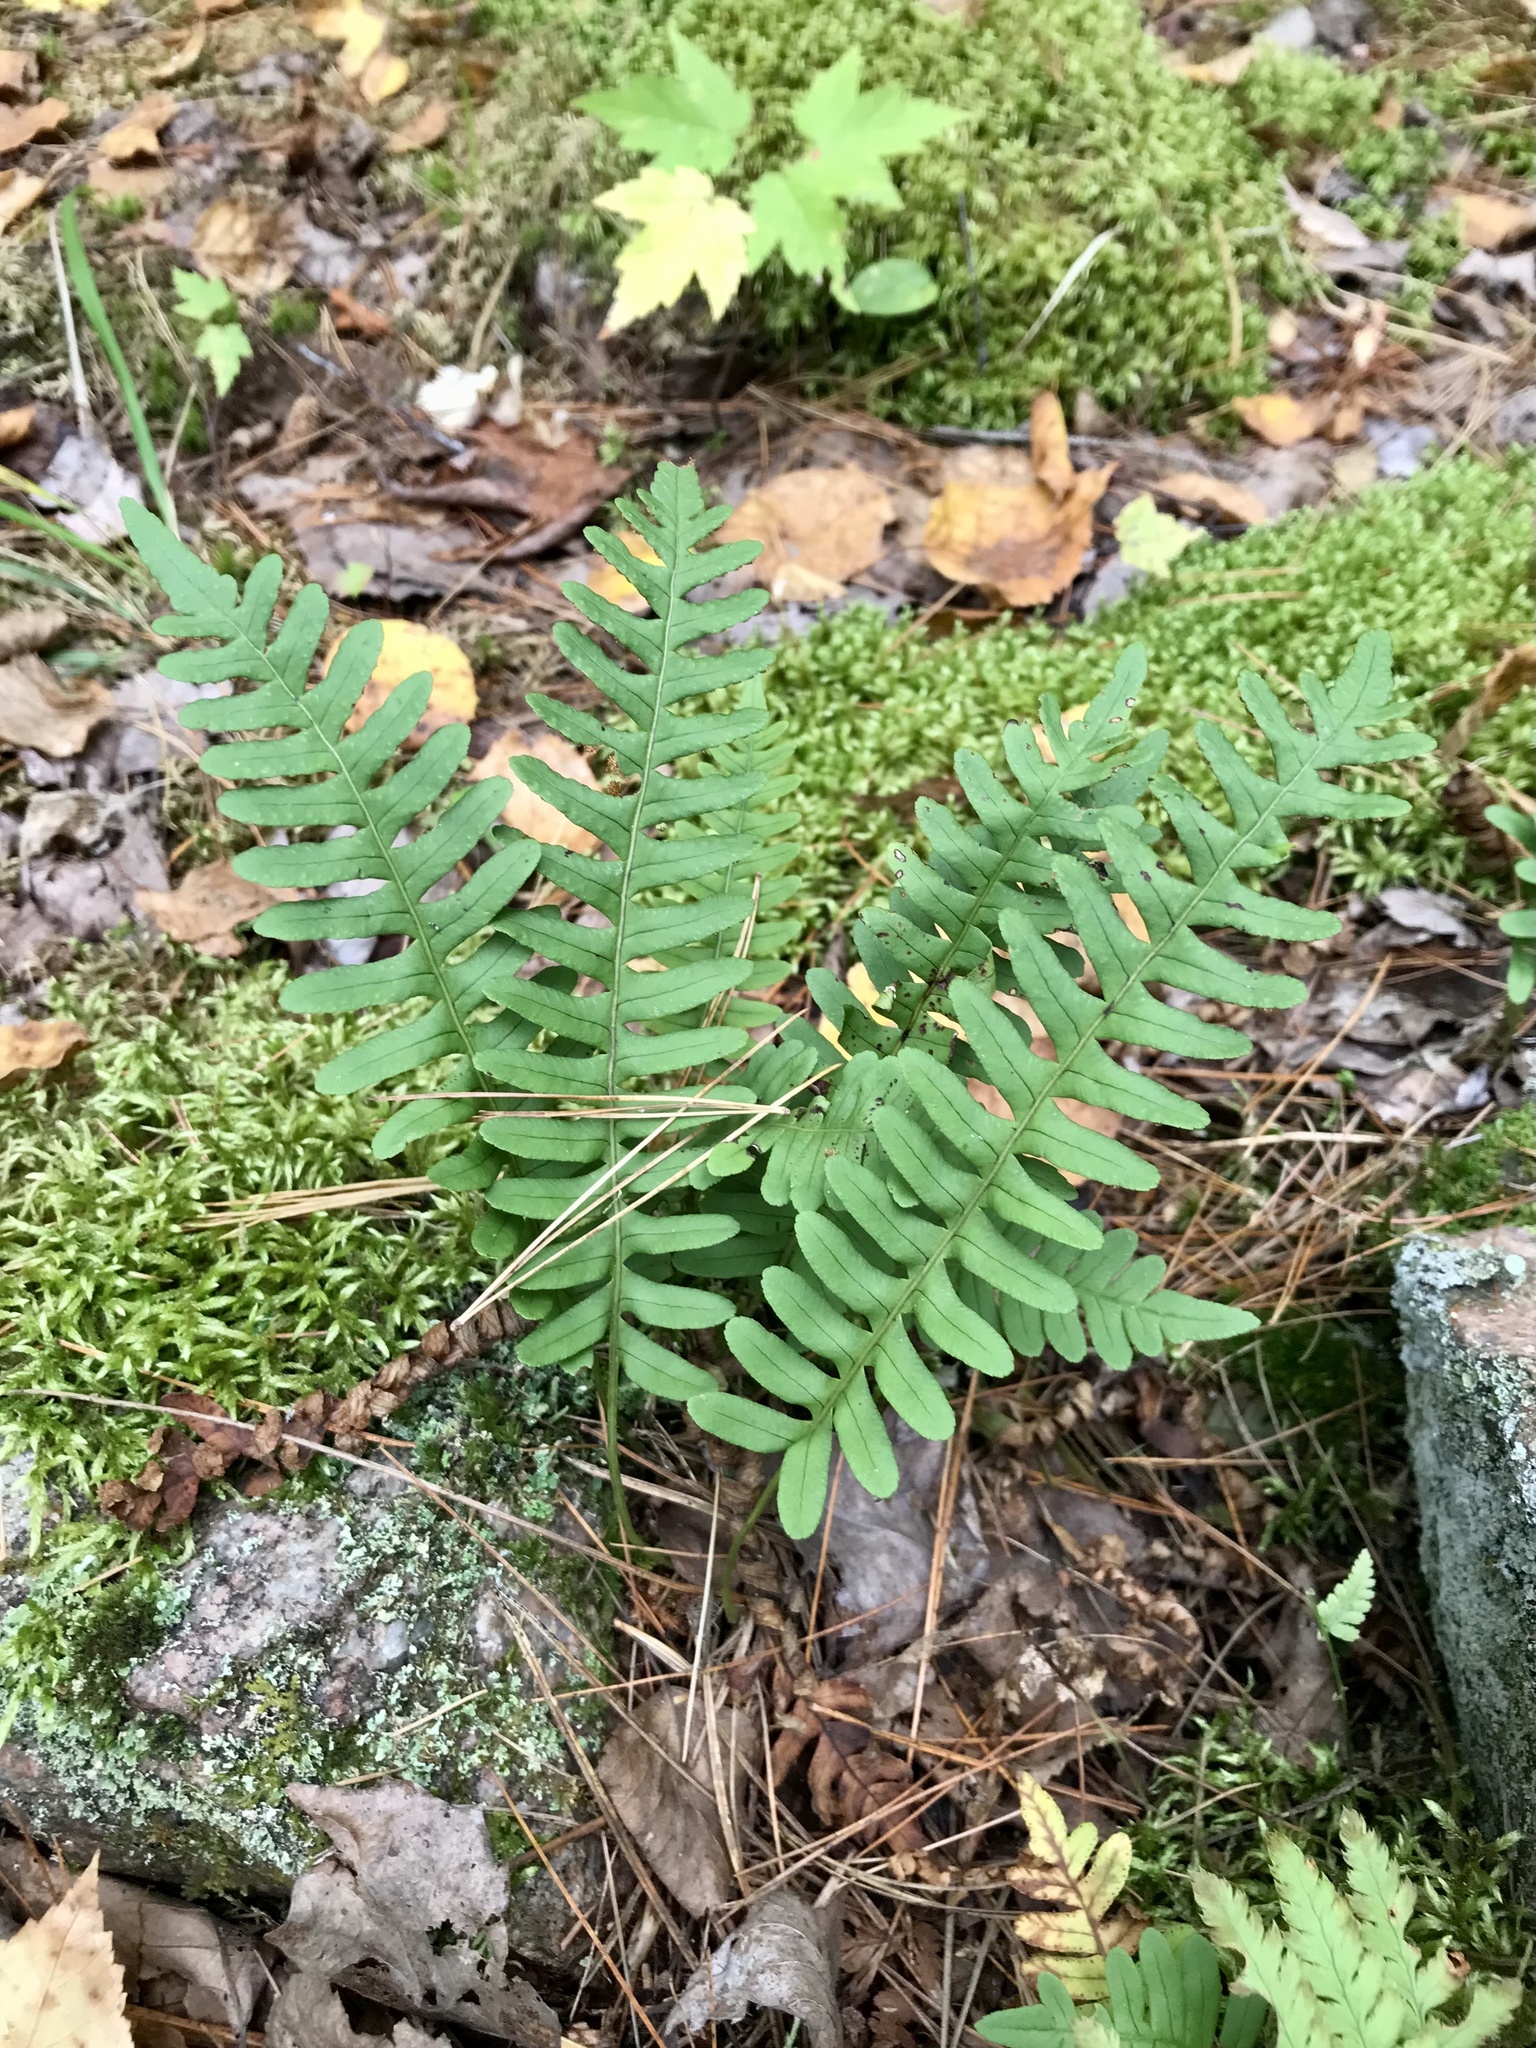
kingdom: Plantae
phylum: Tracheophyta
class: Polypodiopsida
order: Polypodiales
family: Polypodiaceae
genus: Polypodium
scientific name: Polypodium virginianum
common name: American wall fern
